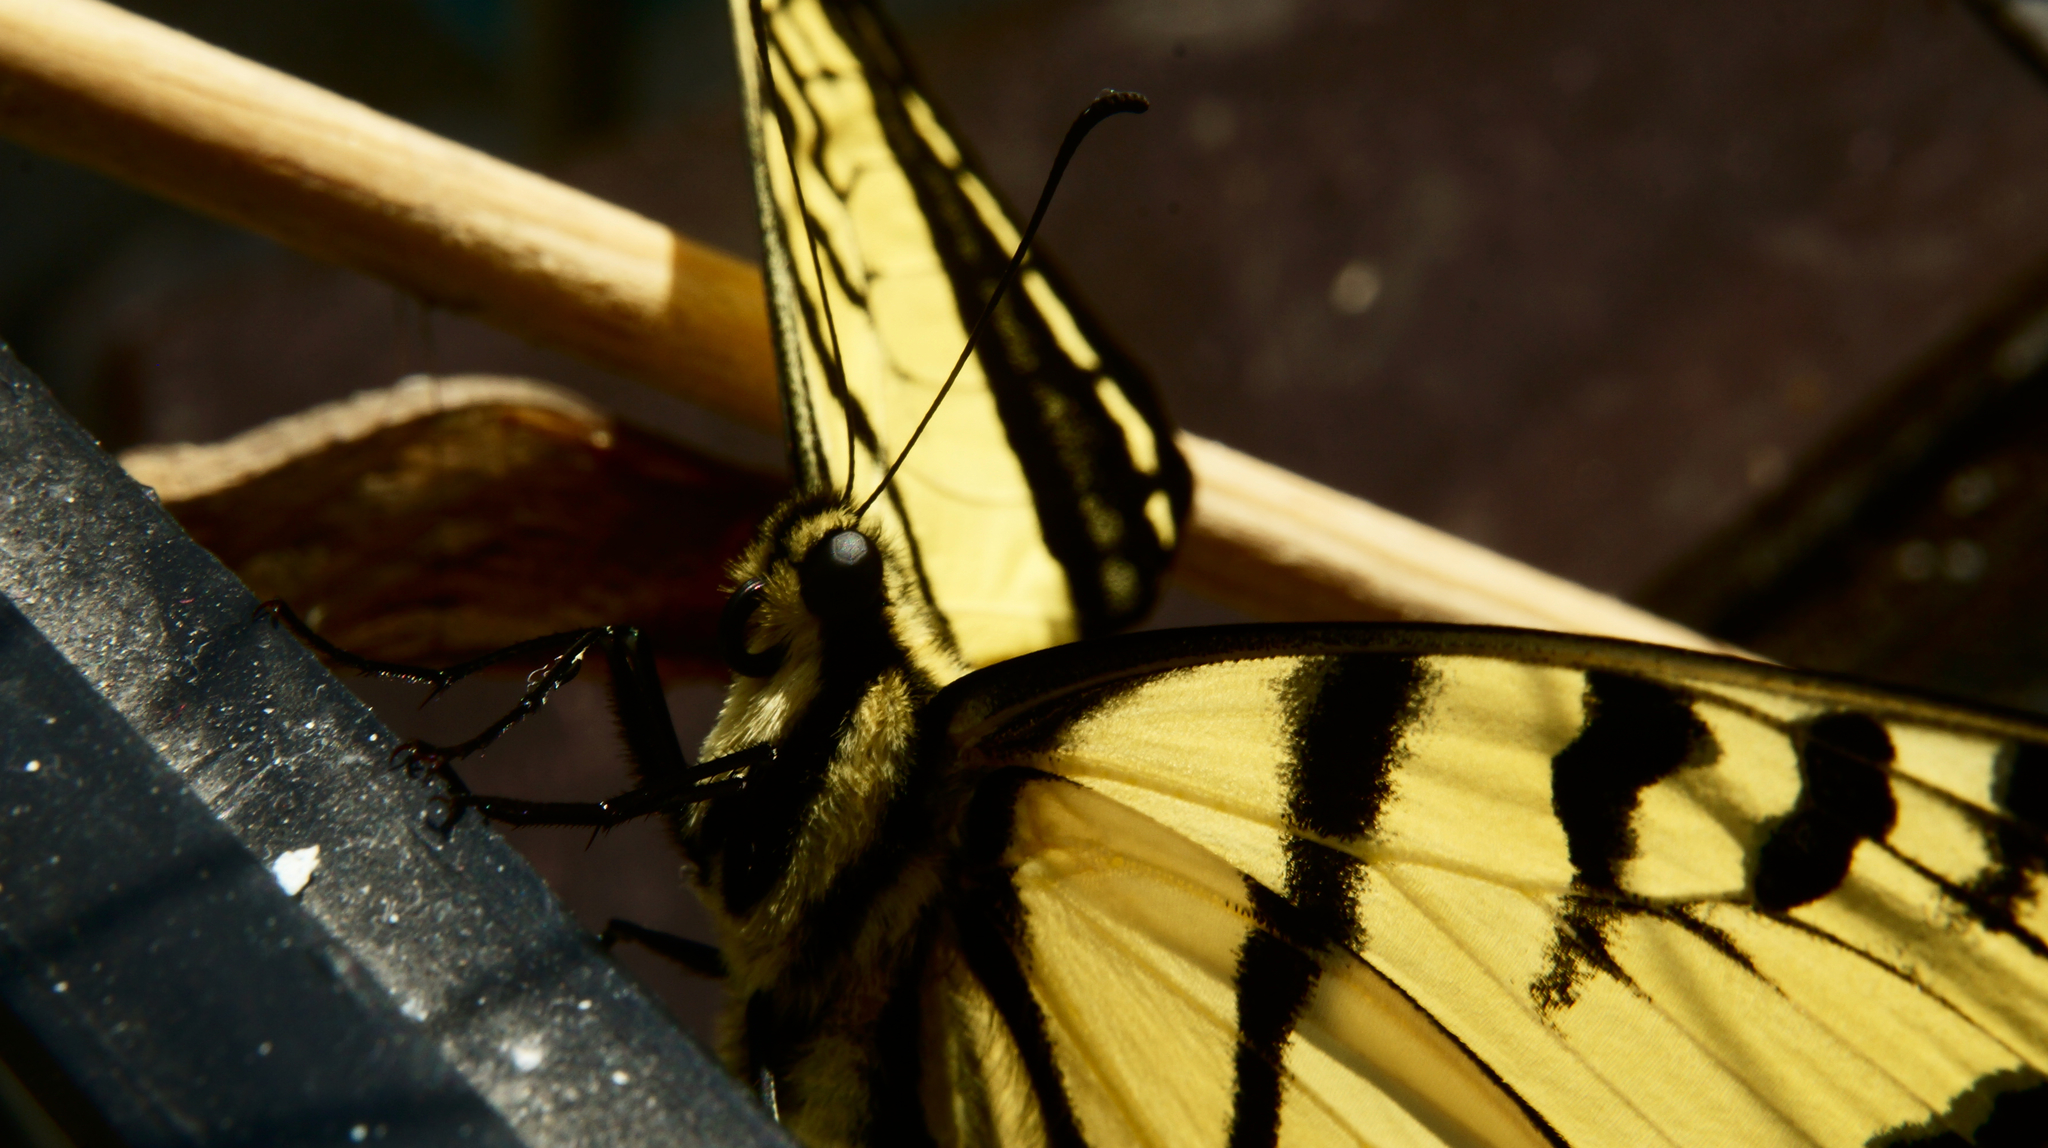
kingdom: Animalia
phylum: Arthropoda
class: Insecta
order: Lepidoptera
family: Papilionidae
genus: Papilio
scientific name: Papilio multicaudata
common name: Two-tailed tiger swallowtail
